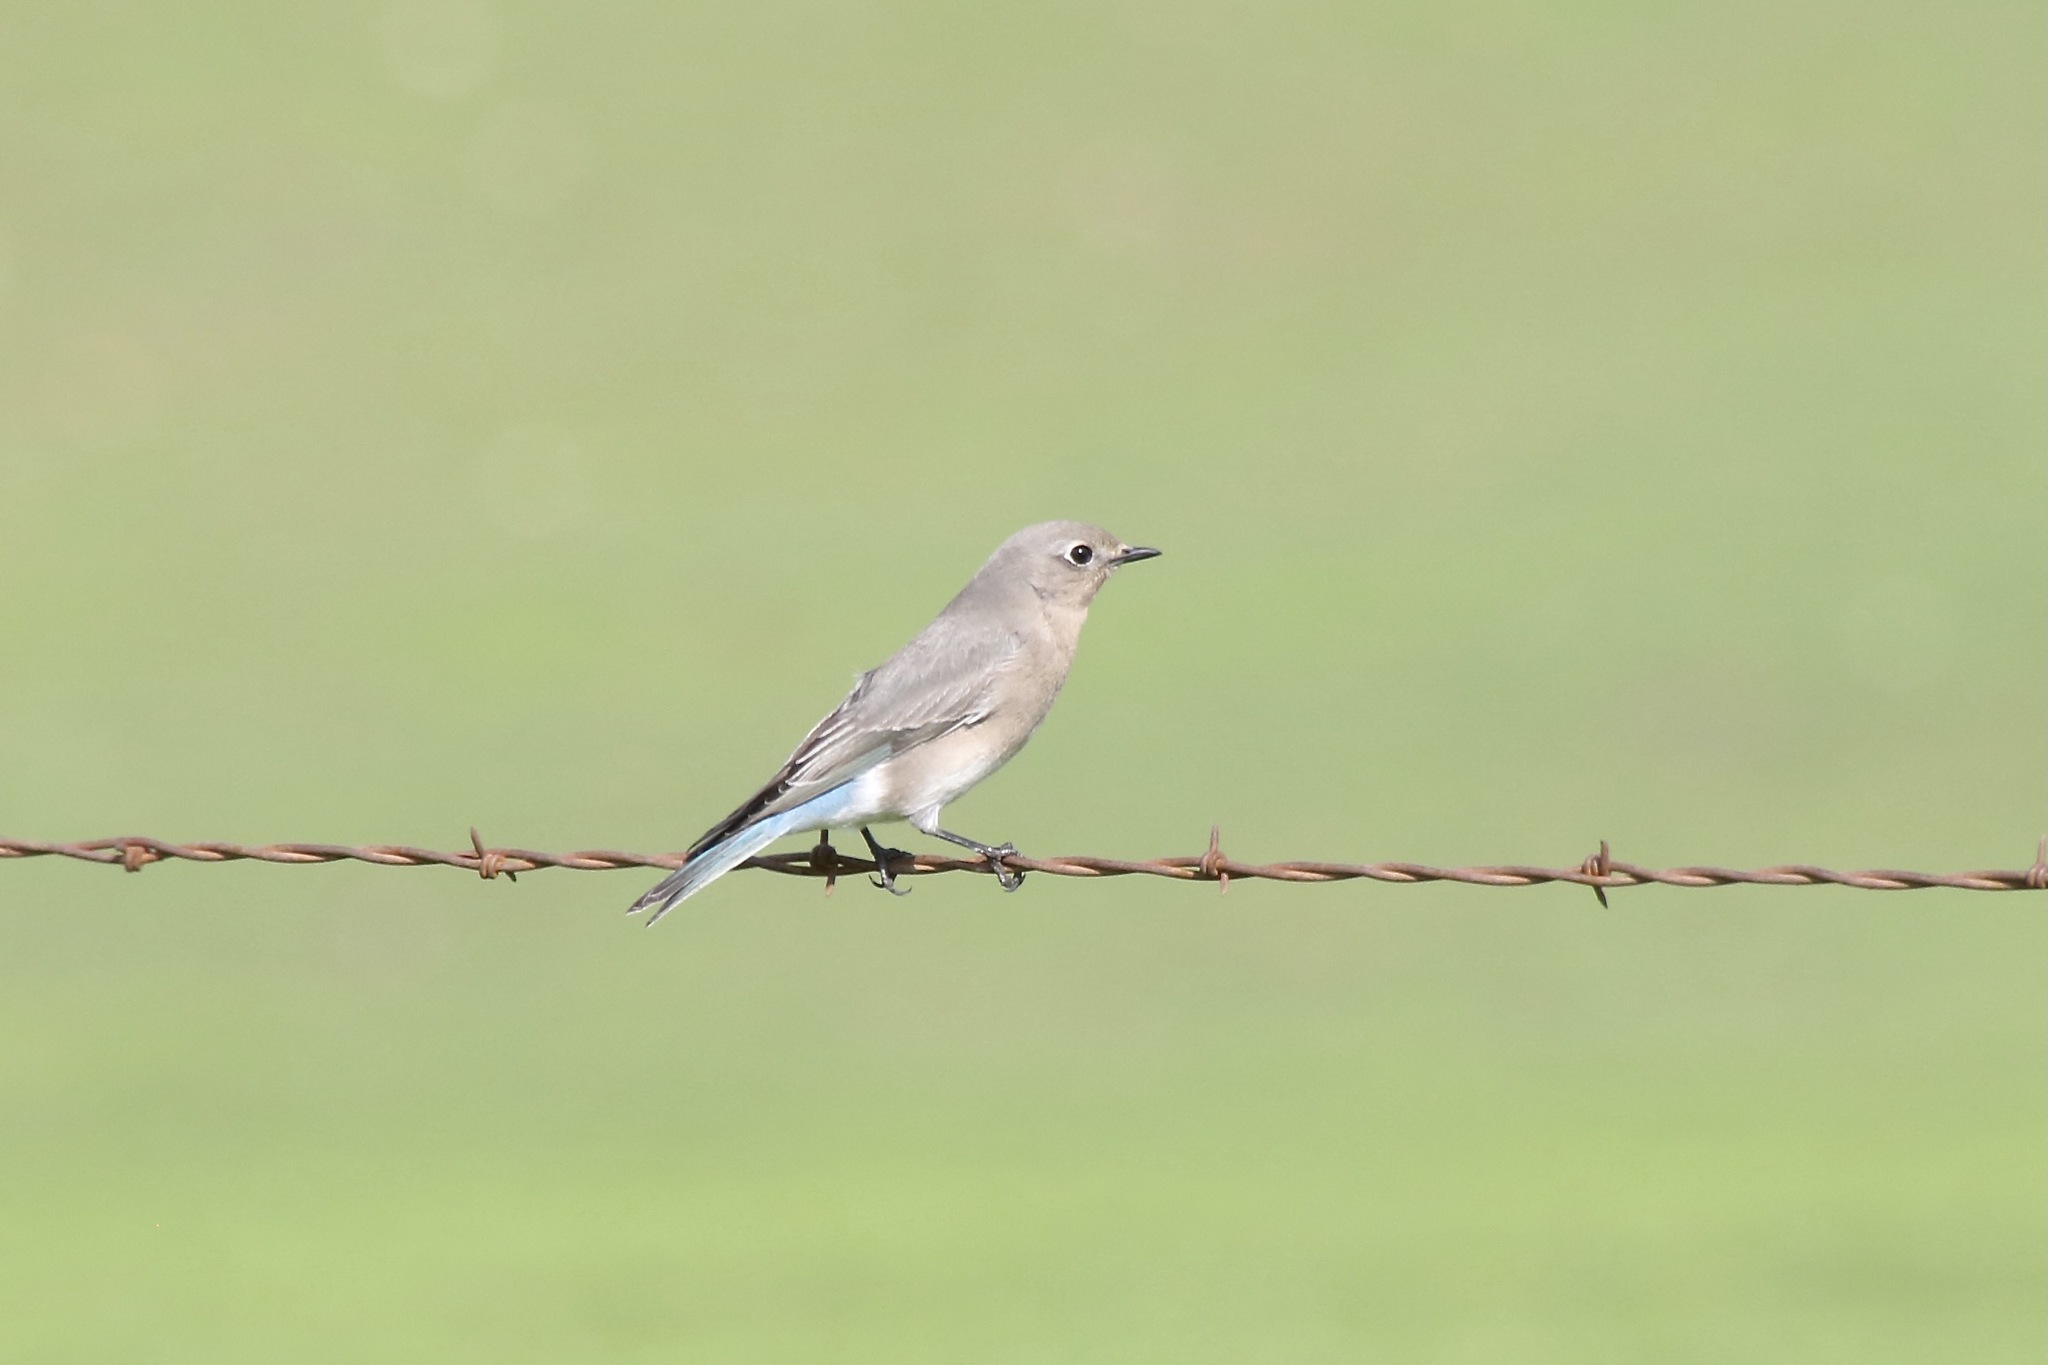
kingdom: Animalia
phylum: Chordata
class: Aves
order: Passeriformes
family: Turdidae
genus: Sialia
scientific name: Sialia currucoides
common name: Mountain bluebird
